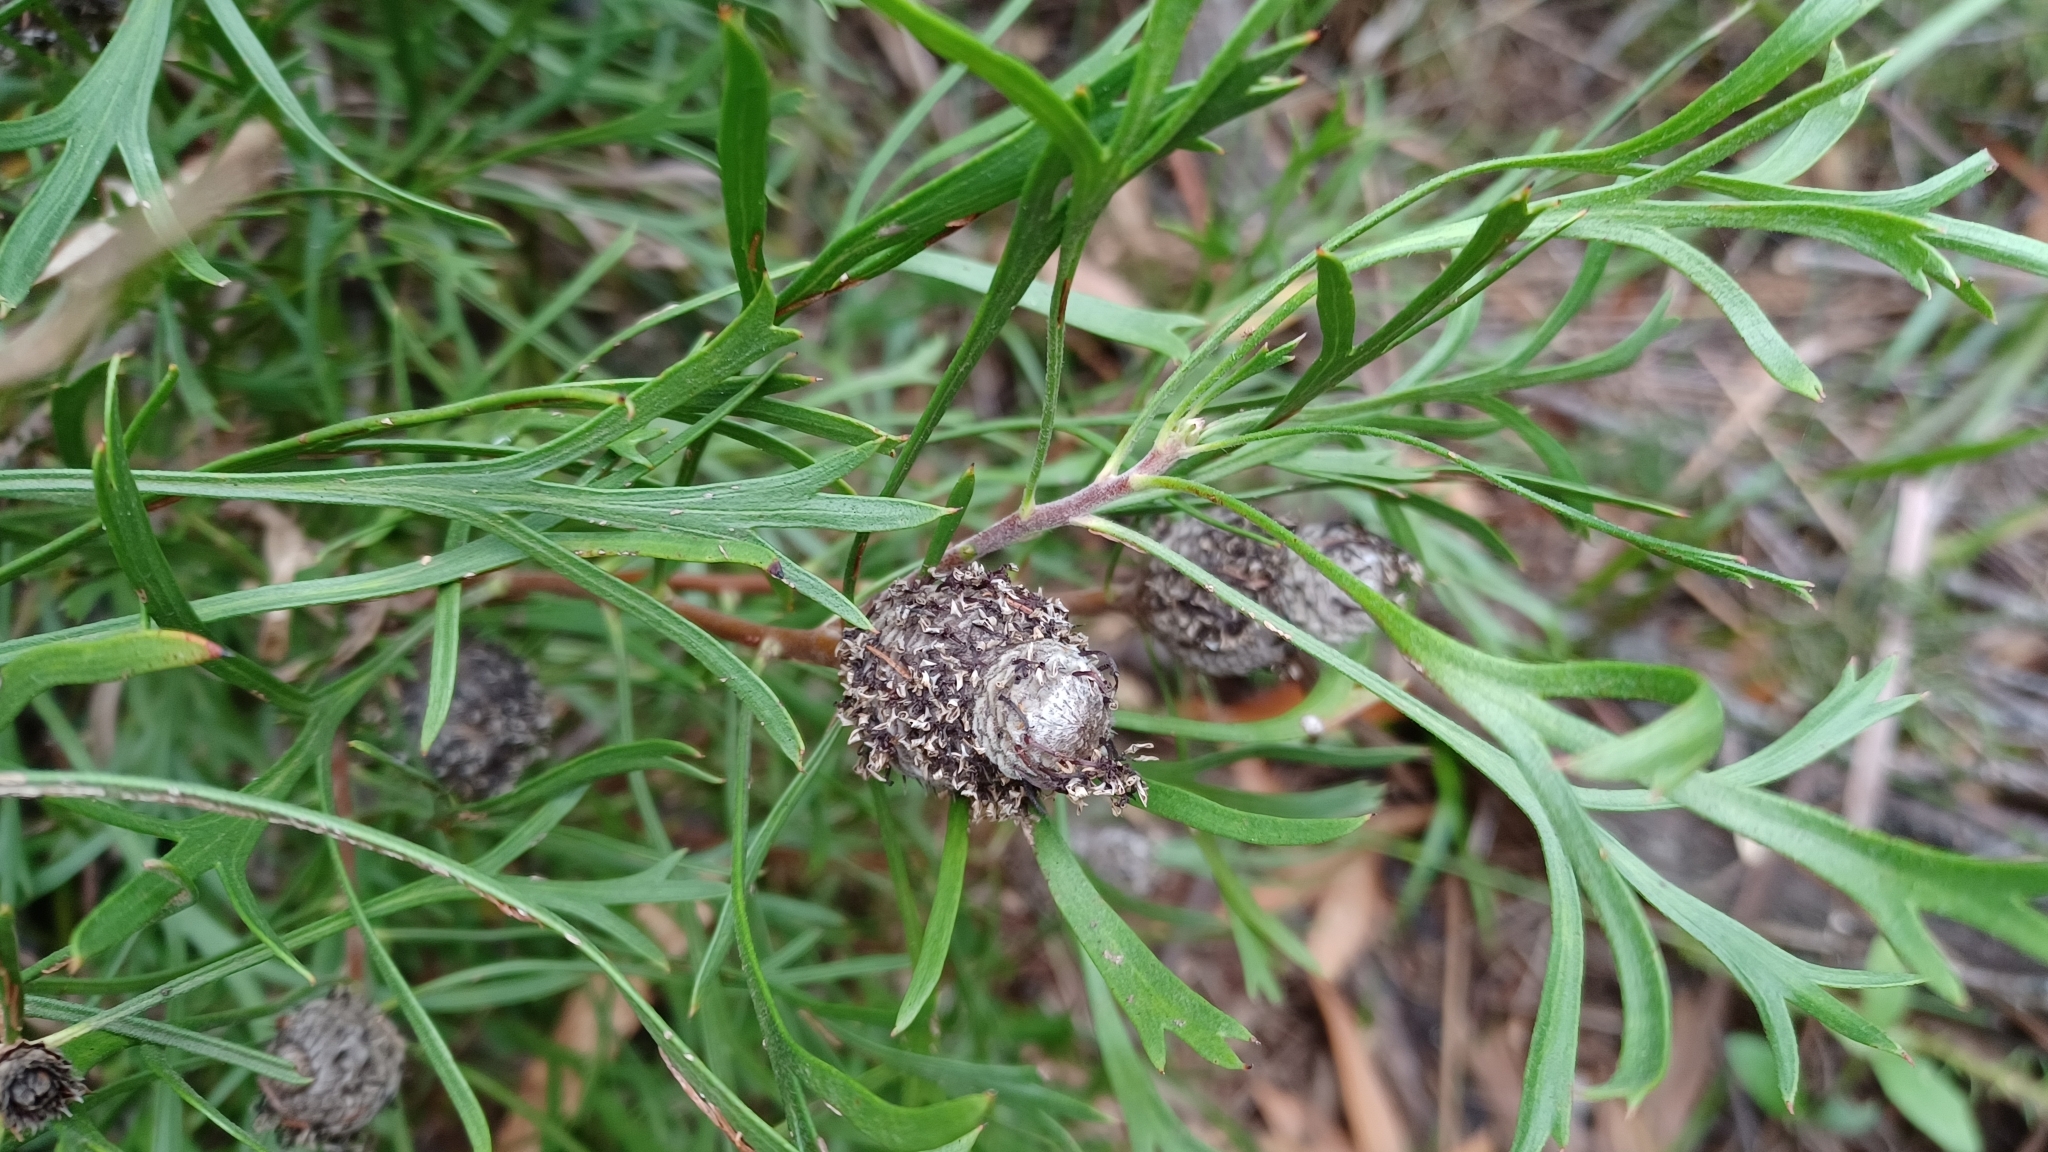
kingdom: Plantae
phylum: Tracheophyta
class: Magnoliopsida
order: Proteales
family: Proteaceae
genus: Isopogon
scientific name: Isopogon anemonifolius
